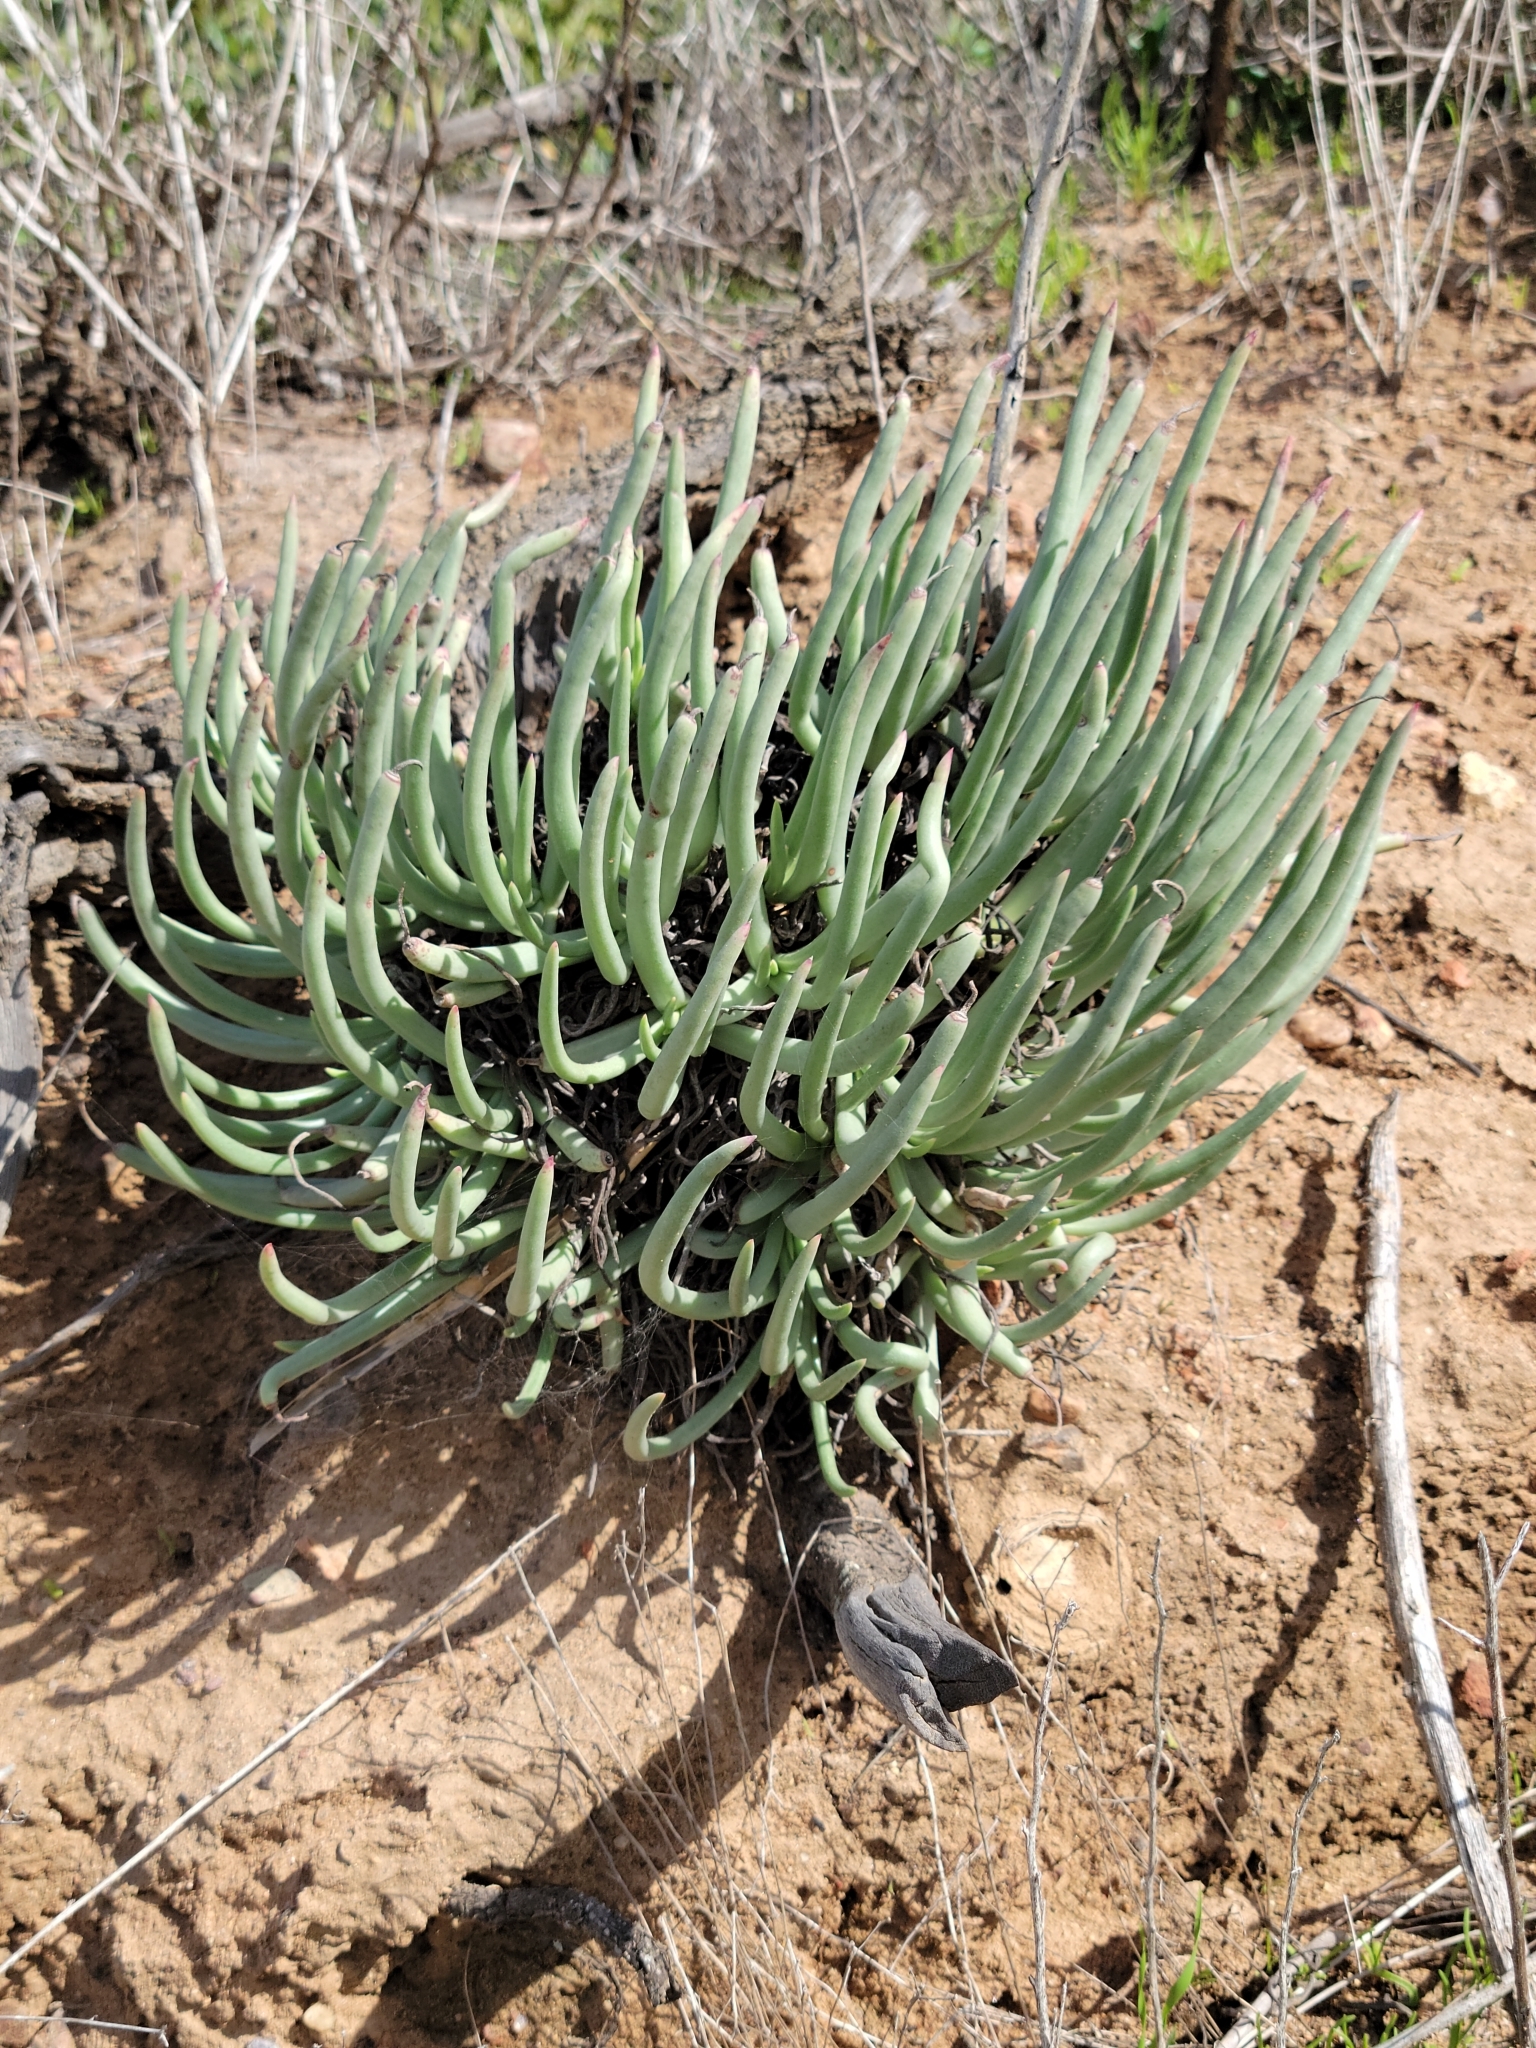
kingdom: Plantae
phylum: Tracheophyta
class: Magnoliopsida
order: Saxifragales
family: Crassulaceae
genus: Dudleya
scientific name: Dudleya edulis
